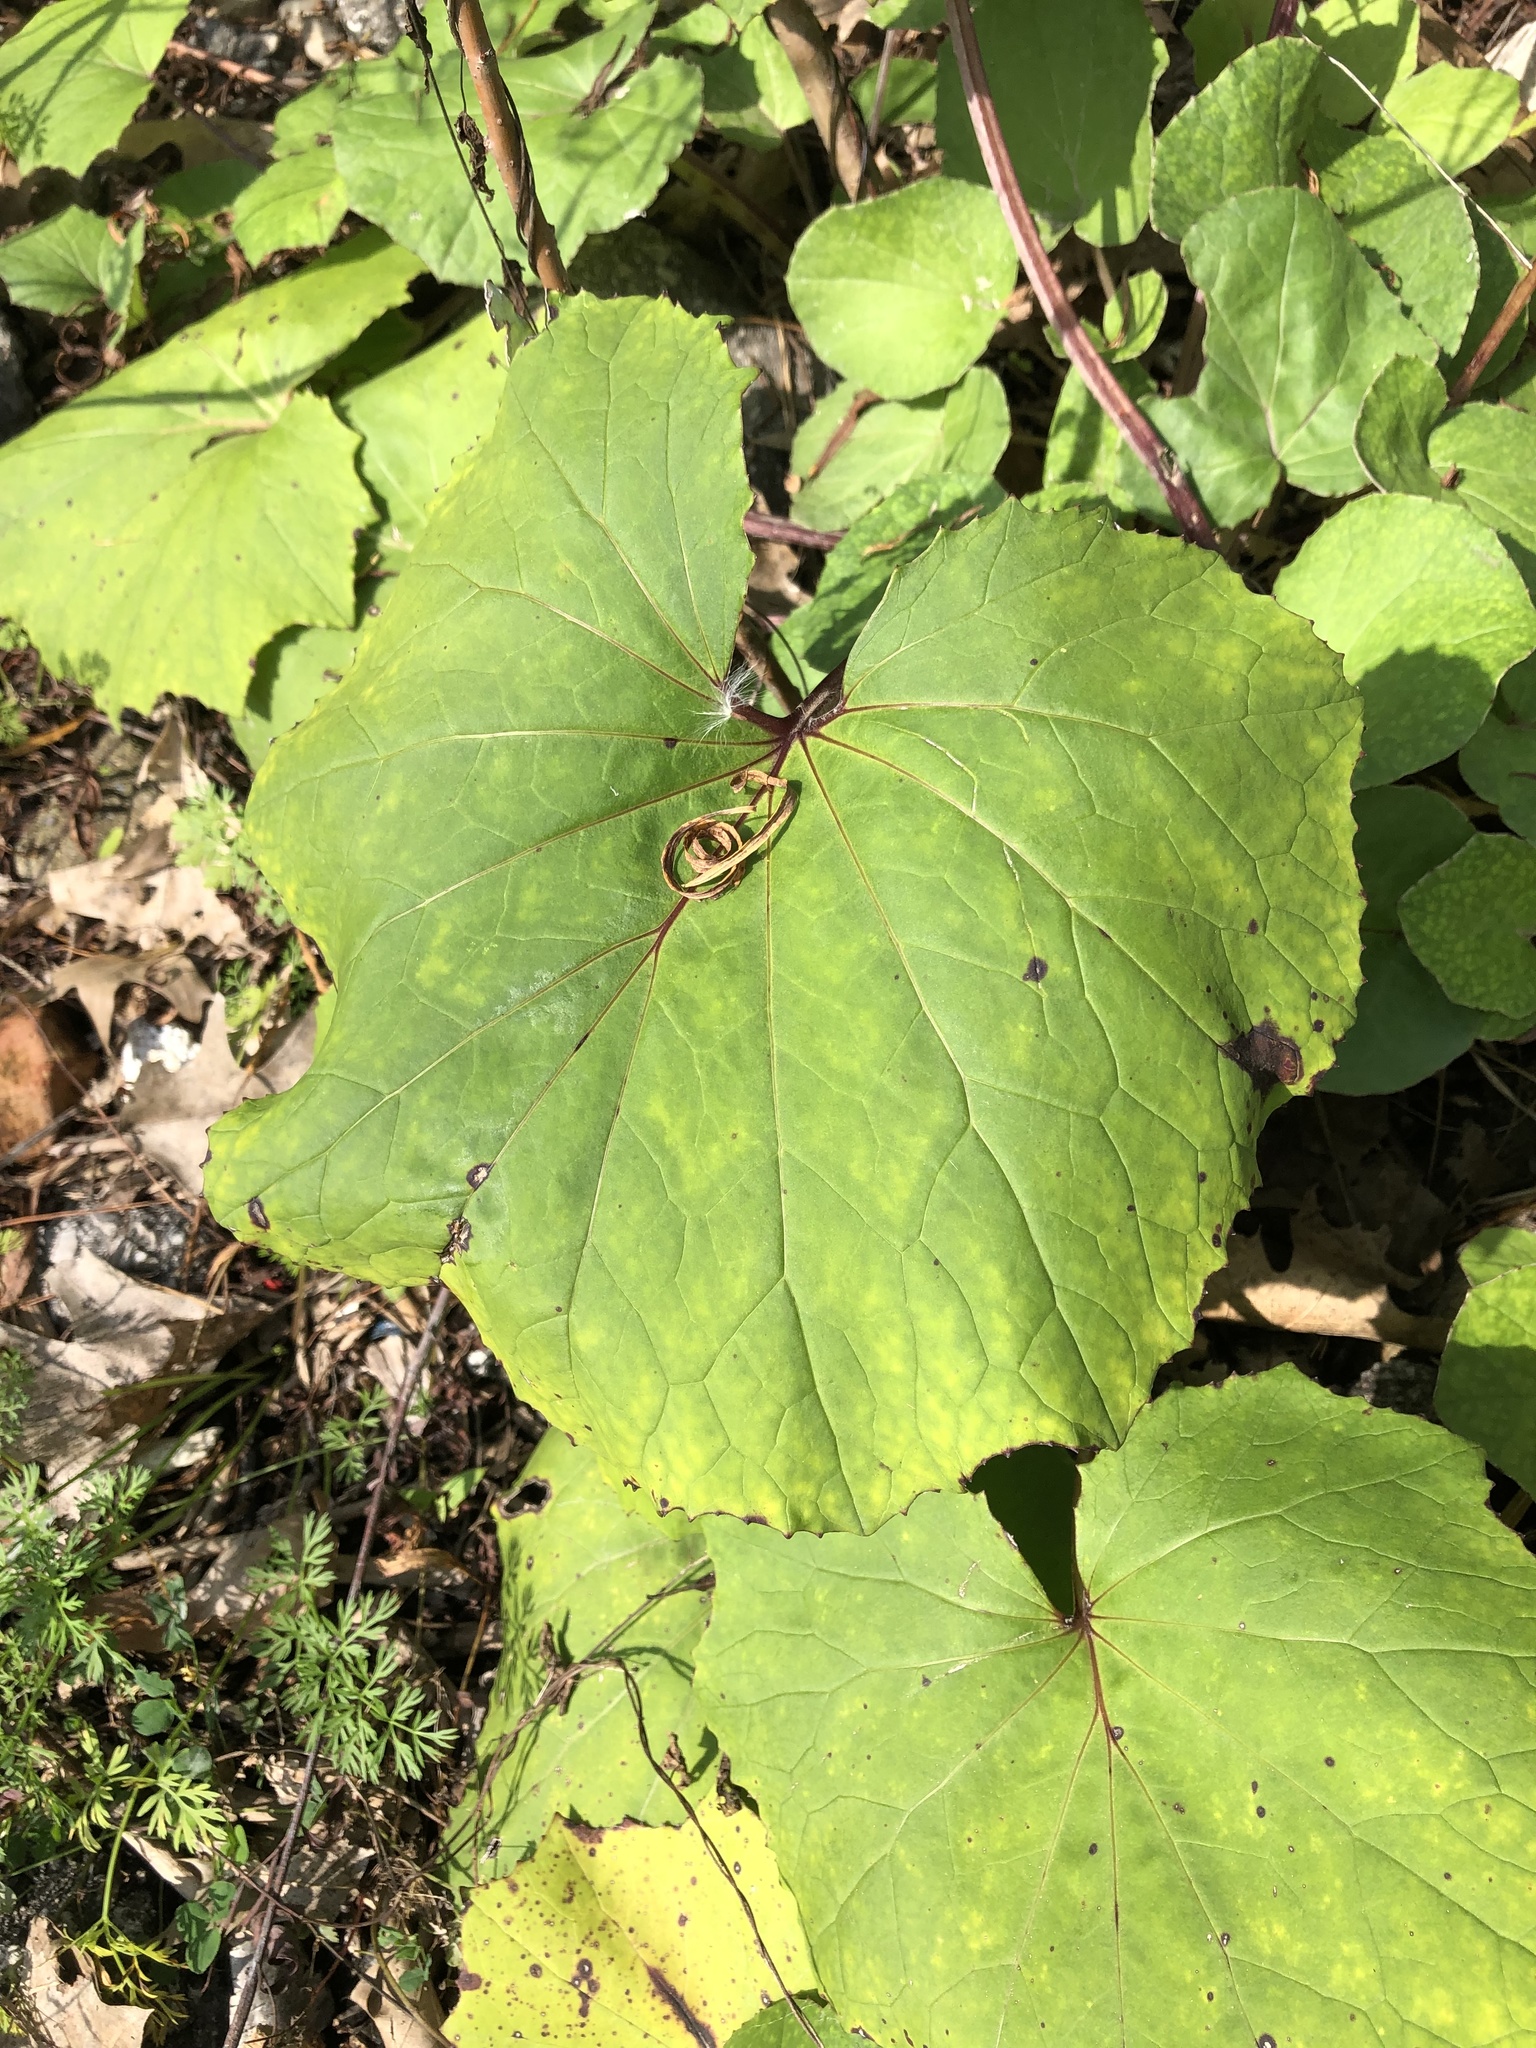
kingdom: Plantae
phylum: Tracheophyta
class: Magnoliopsida
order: Asterales
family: Asteraceae
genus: Tussilago
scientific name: Tussilago farfara
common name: Coltsfoot
